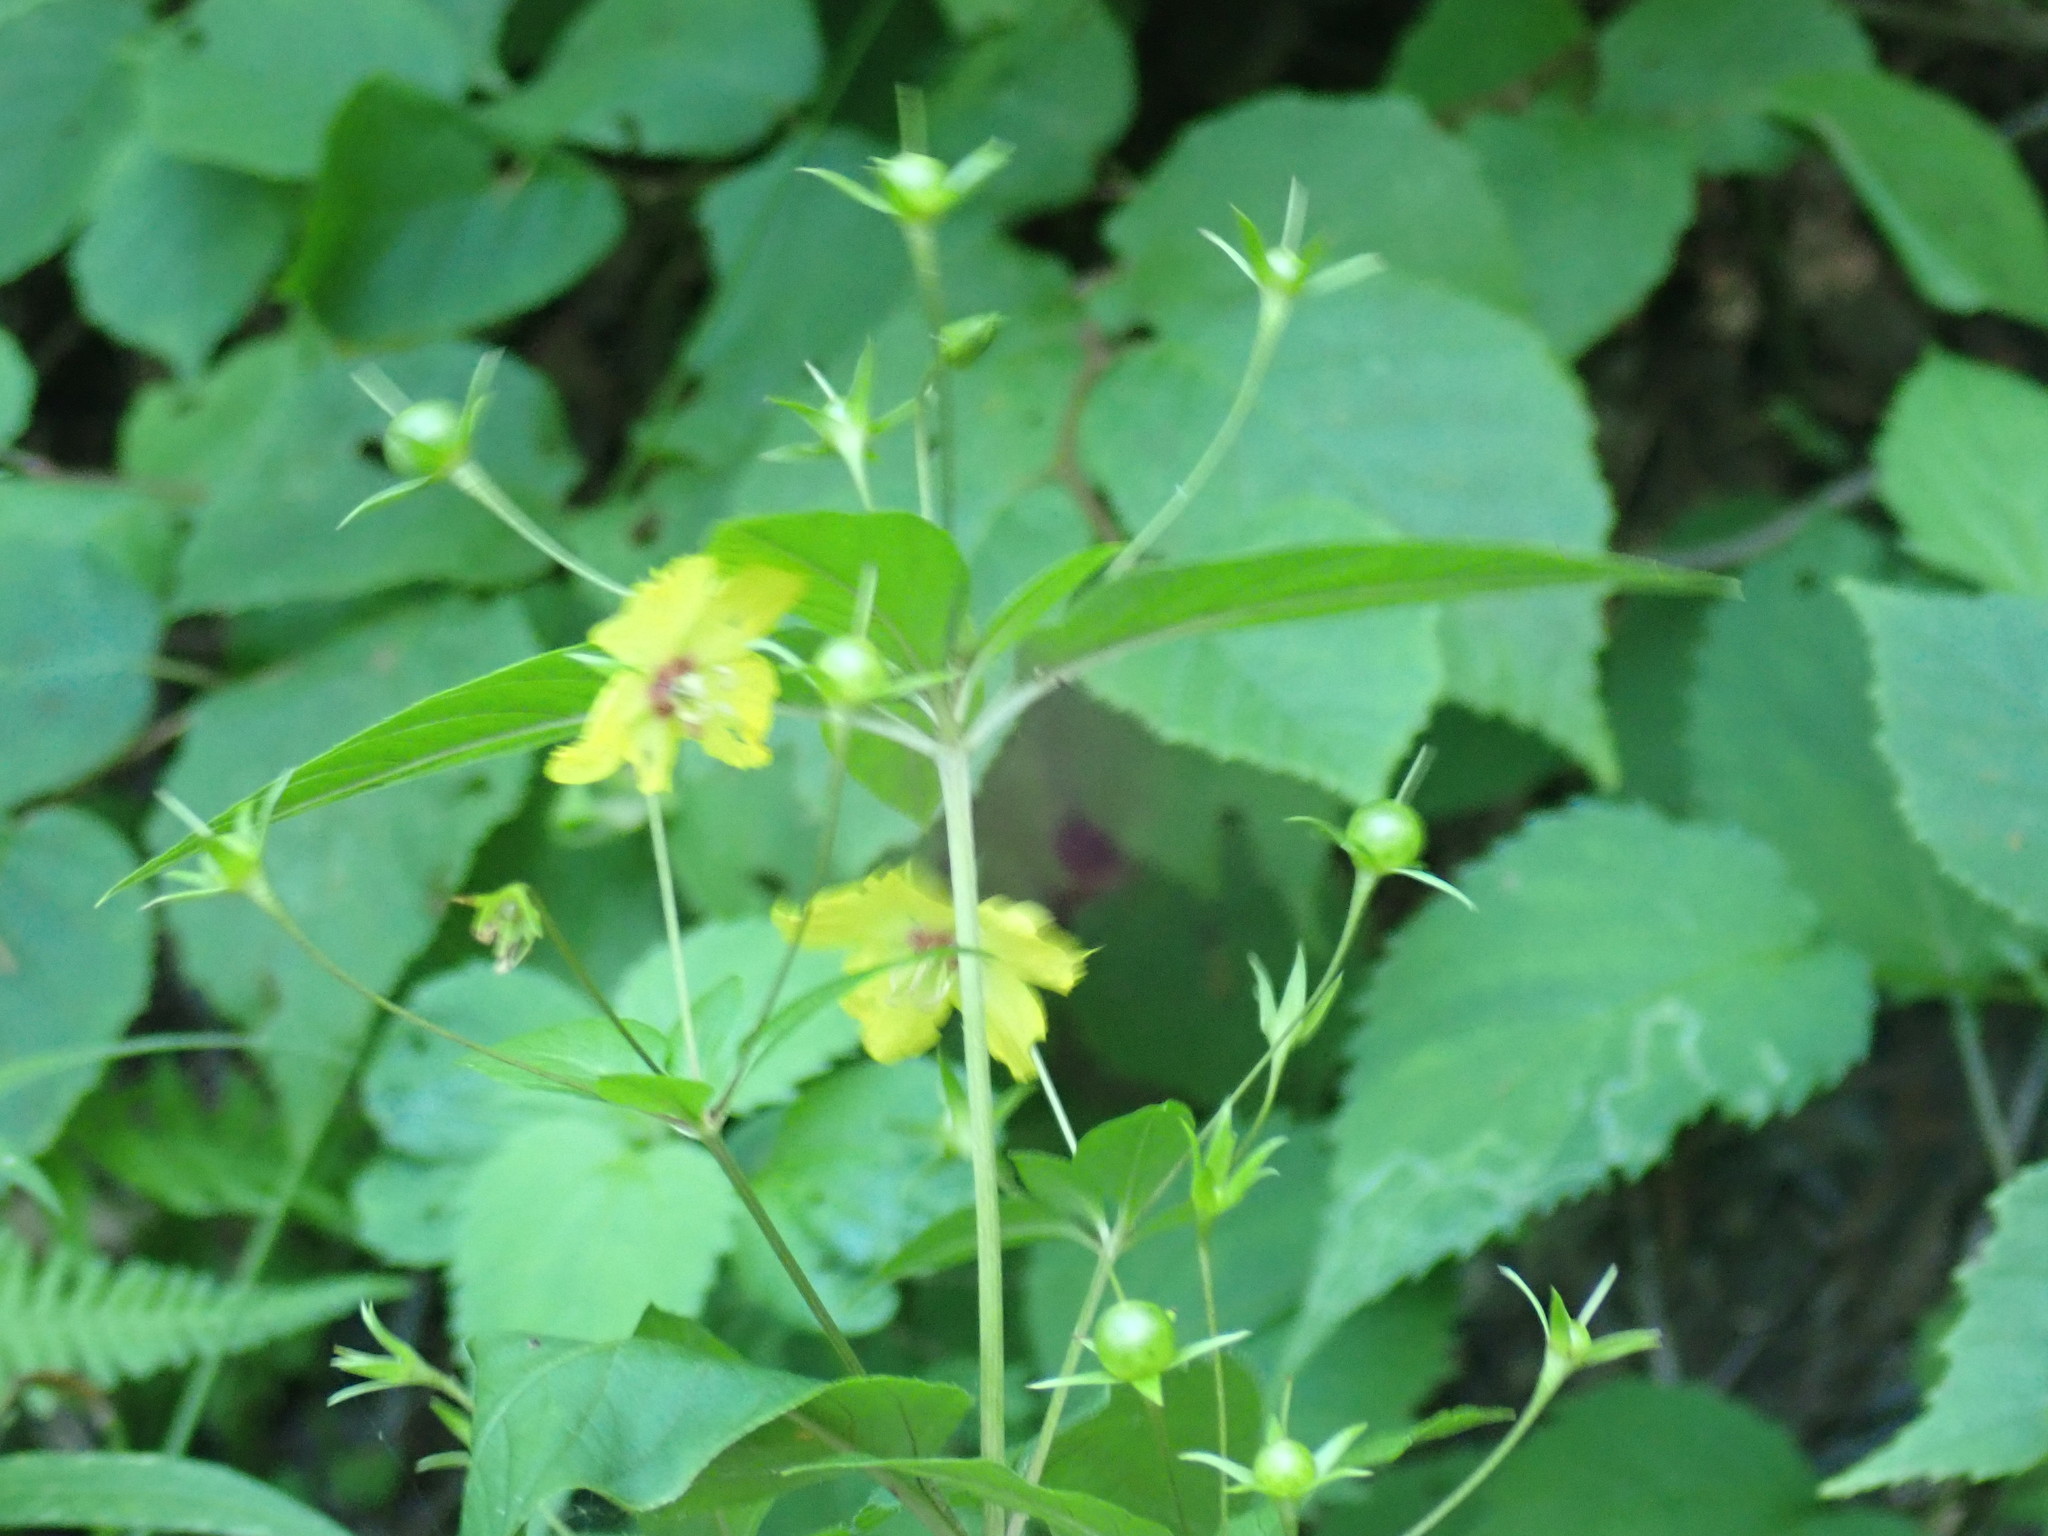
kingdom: Plantae
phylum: Tracheophyta
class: Magnoliopsida
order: Ericales
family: Primulaceae
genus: Lysimachia
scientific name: Lysimachia ciliata
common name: Fringed loosestrife
